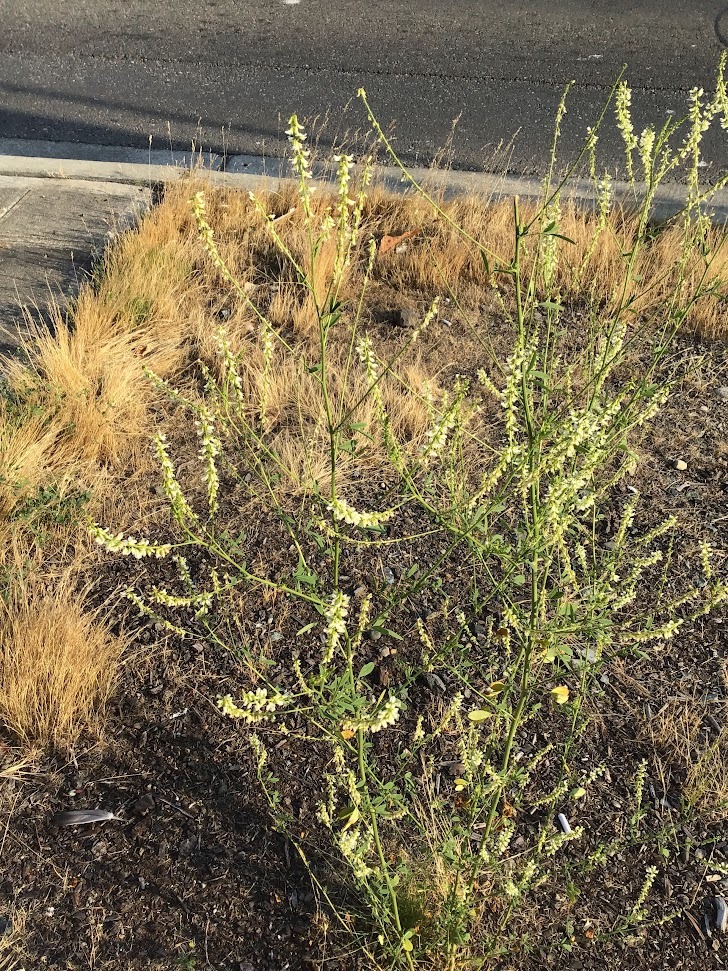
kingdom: Plantae
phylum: Tracheophyta
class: Magnoliopsida
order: Fabales
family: Fabaceae
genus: Melilotus
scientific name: Melilotus albus
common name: White melilot
